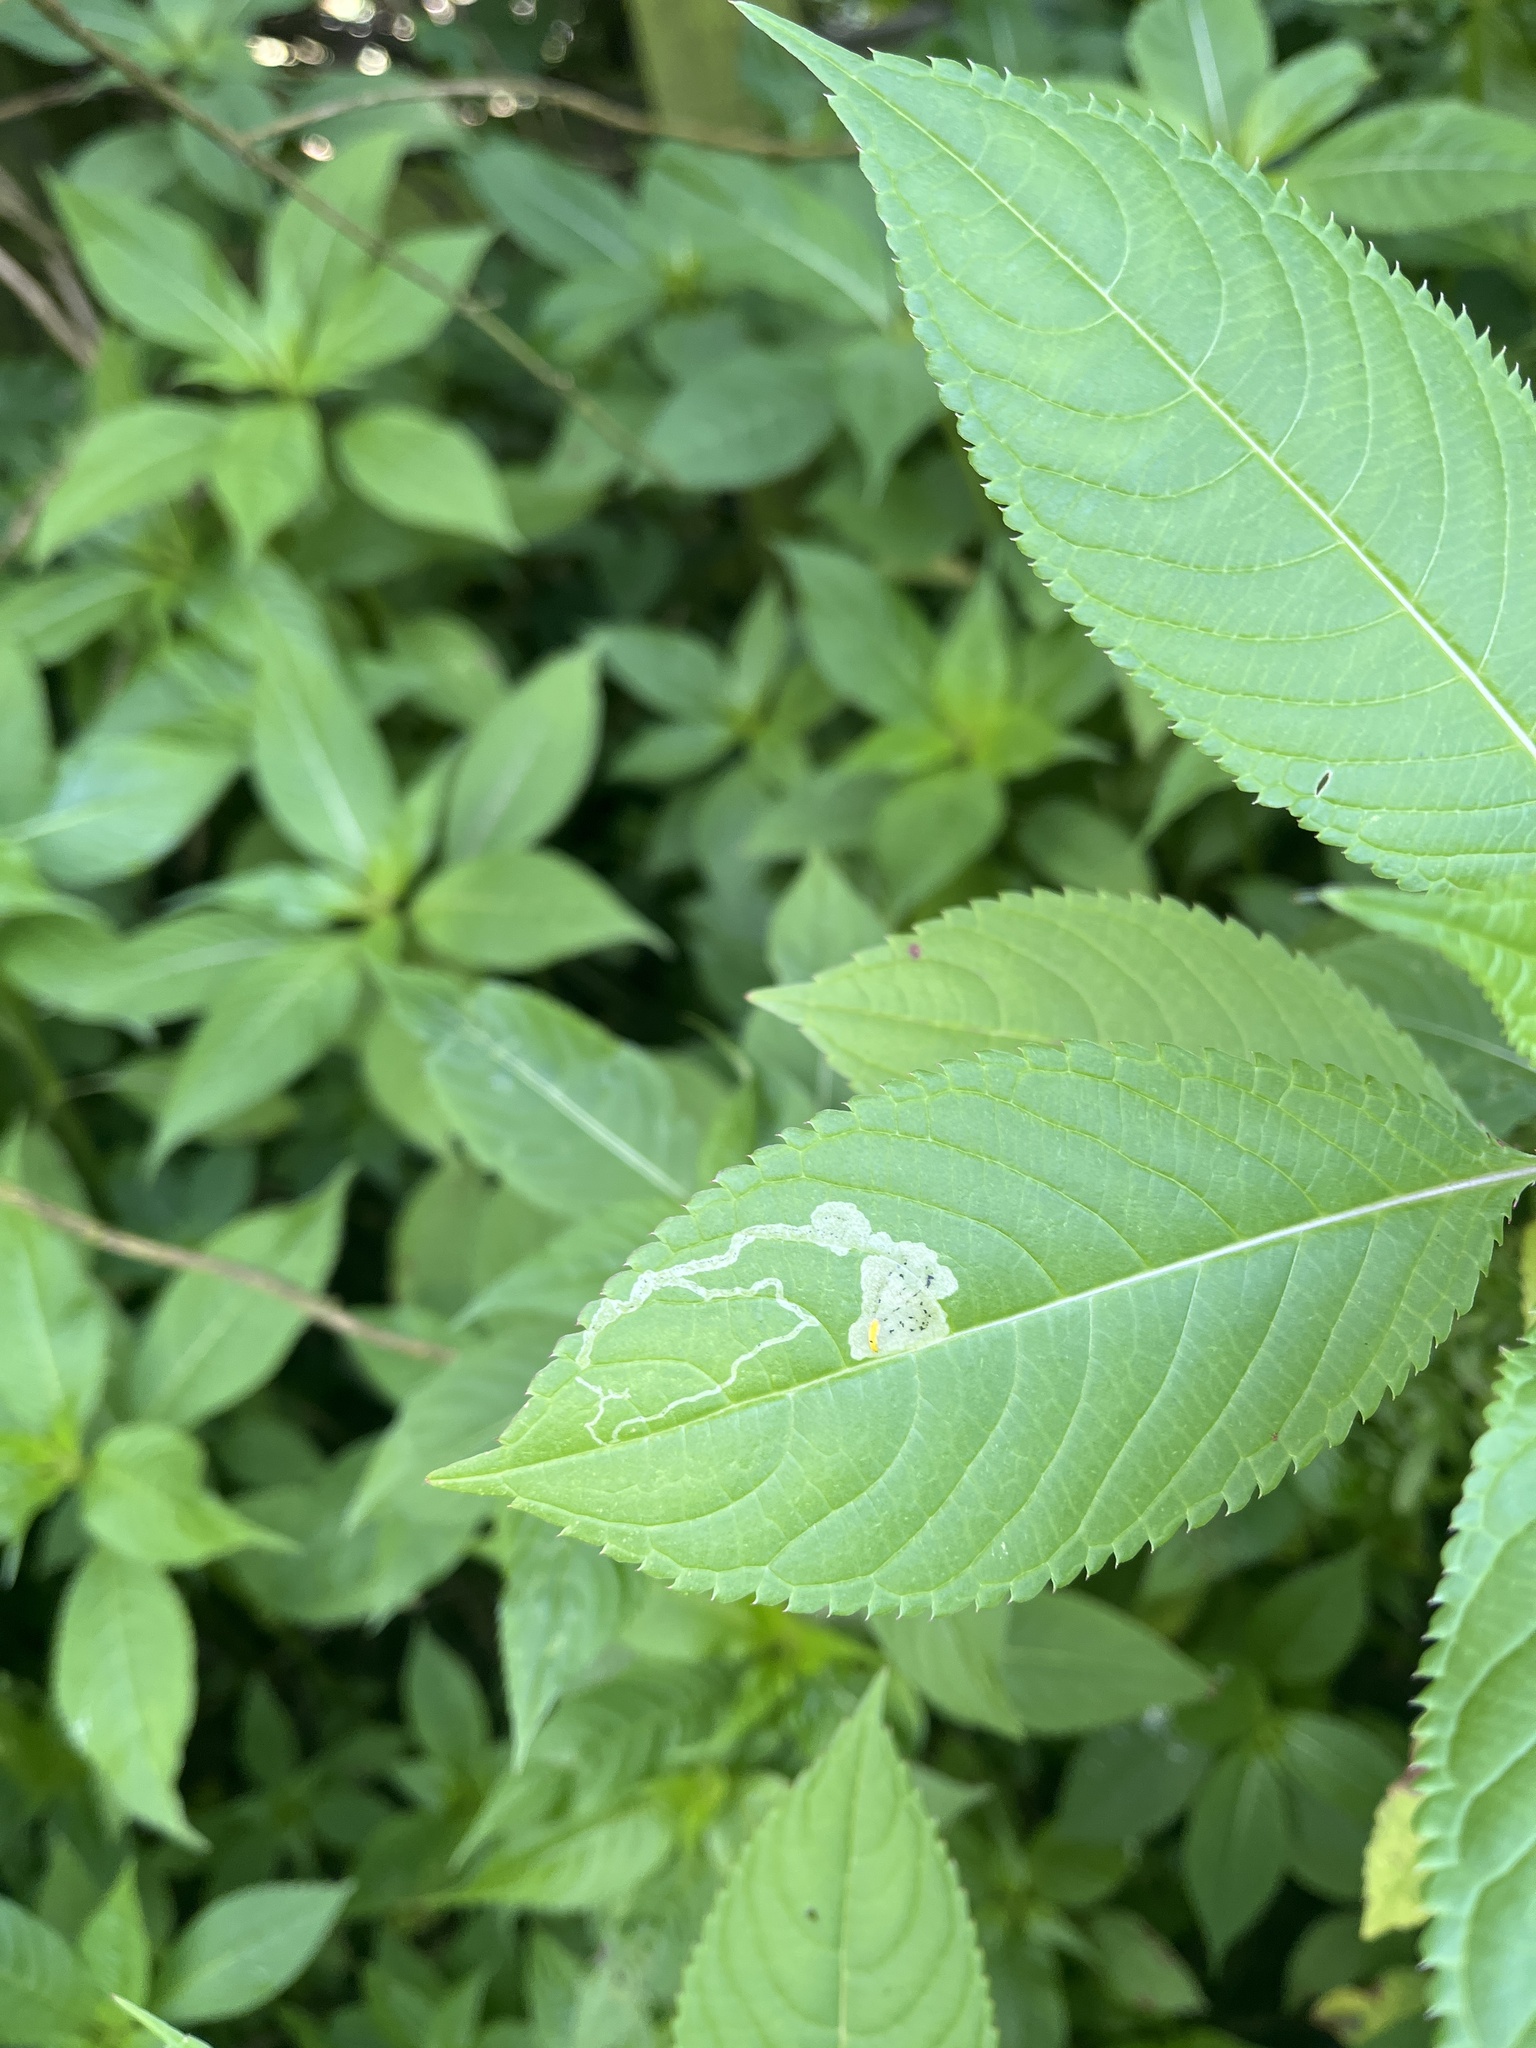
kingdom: Animalia
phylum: Arthropoda
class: Insecta
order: Diptera
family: Agromyzidae
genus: Phytoliriomyza
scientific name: Phytoliriomyza melampyga
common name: Jewelweed leaf-miner fly
